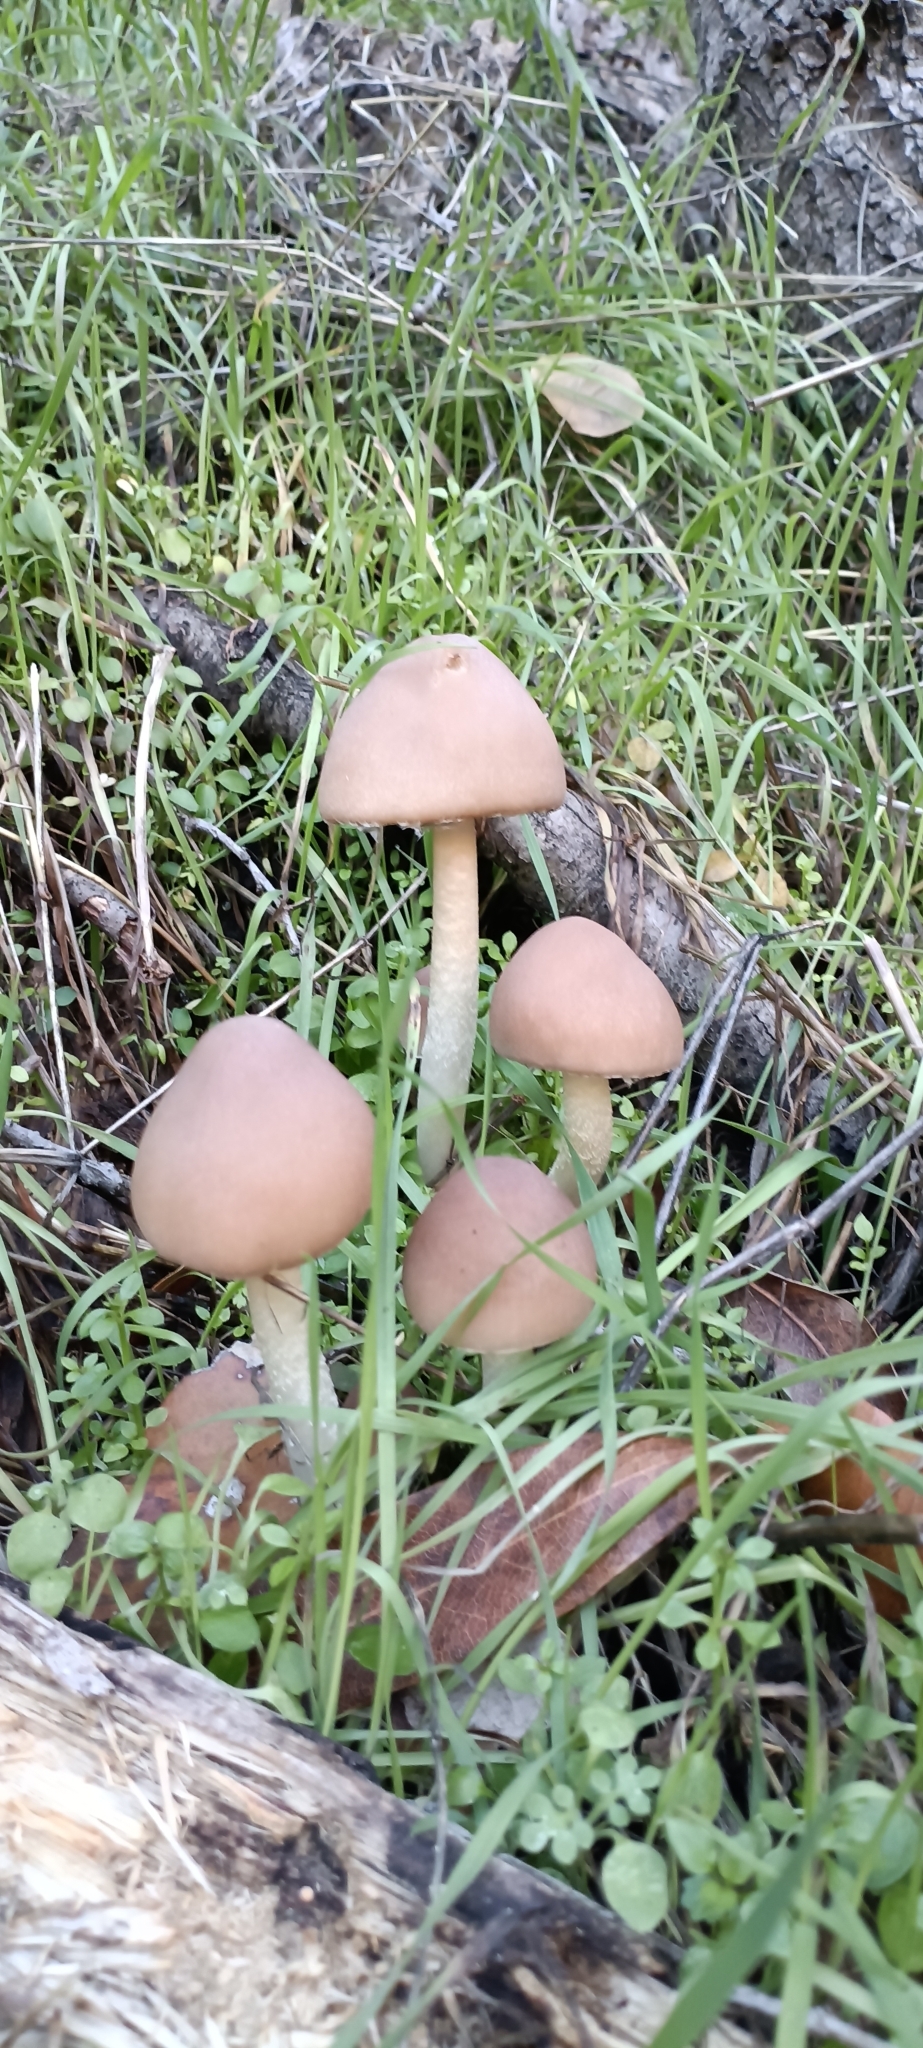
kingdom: Fungi
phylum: Basidiomycota
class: Agaricomycetes
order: Agaricales
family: Psathyrellaceae
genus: Psathyrella
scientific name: Psathyrella longipes
